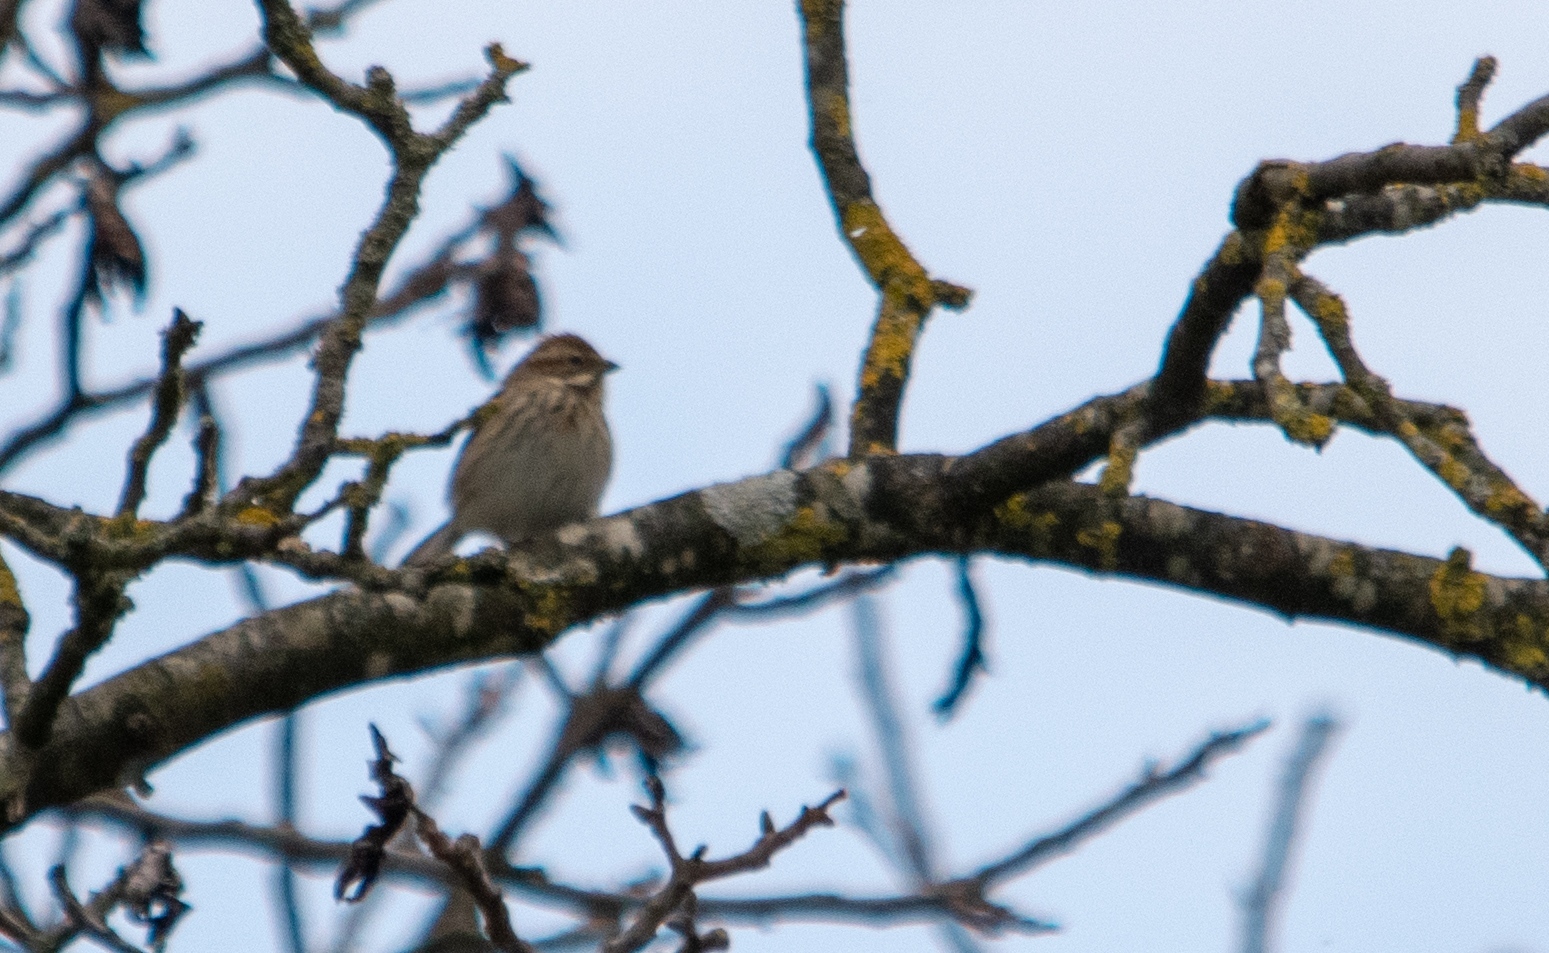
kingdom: Animalia
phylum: Chordata
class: Aves
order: Passeriformes
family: Emberizidae
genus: Emberiza
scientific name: Emberiza schoeniclus
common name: Reed bunting
